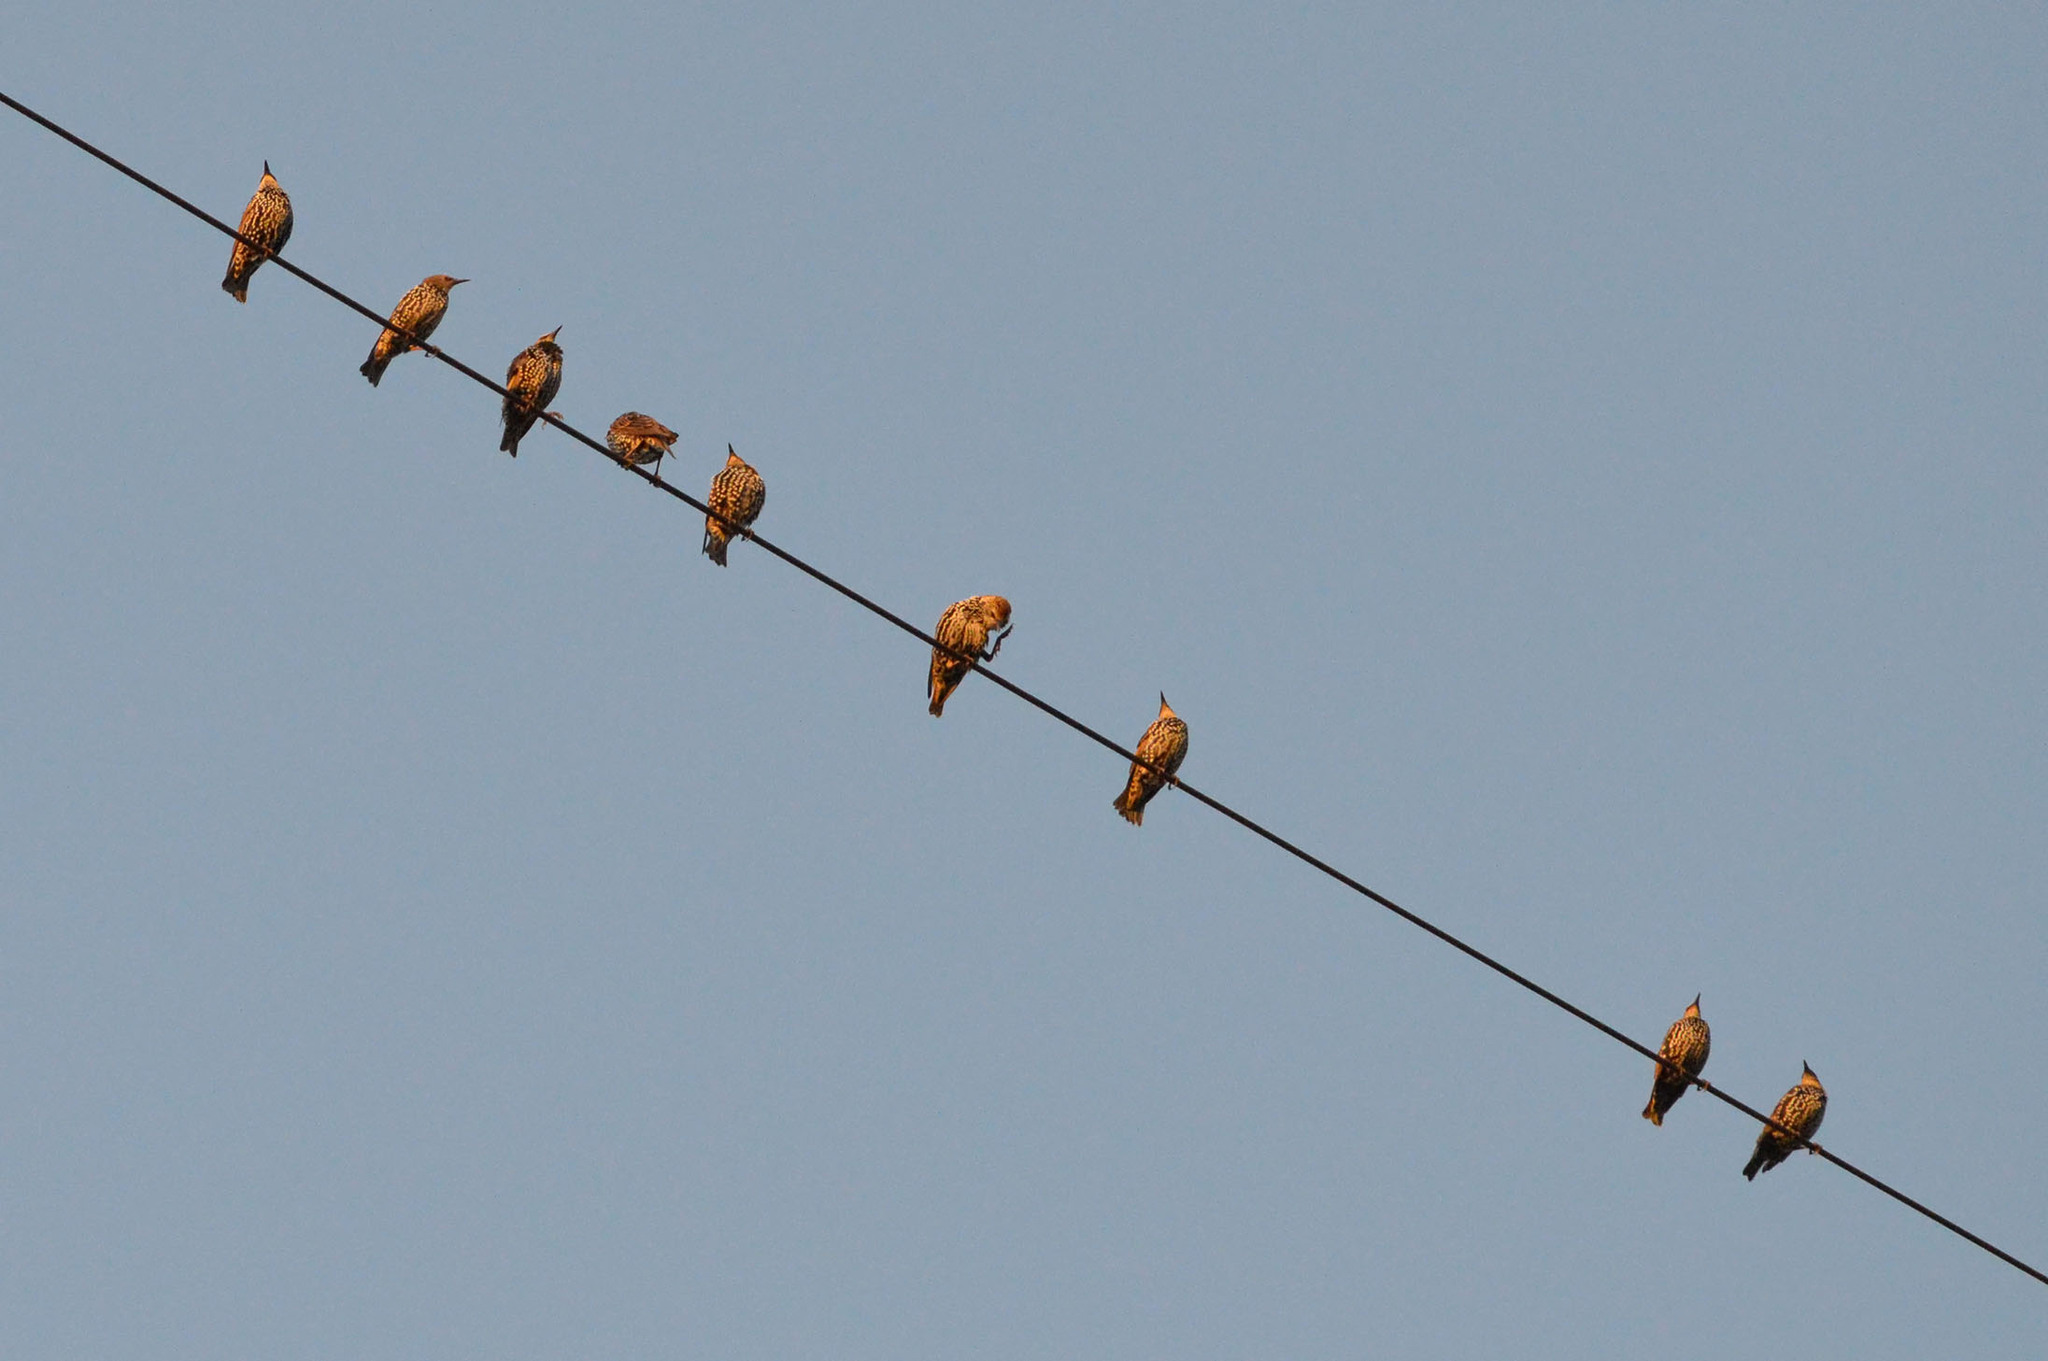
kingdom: Animalia
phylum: Chordata
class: Aves
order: Passeriformes
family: Sturnidae
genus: Sturnus
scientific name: Sturnus vulgaris
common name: Common starling
